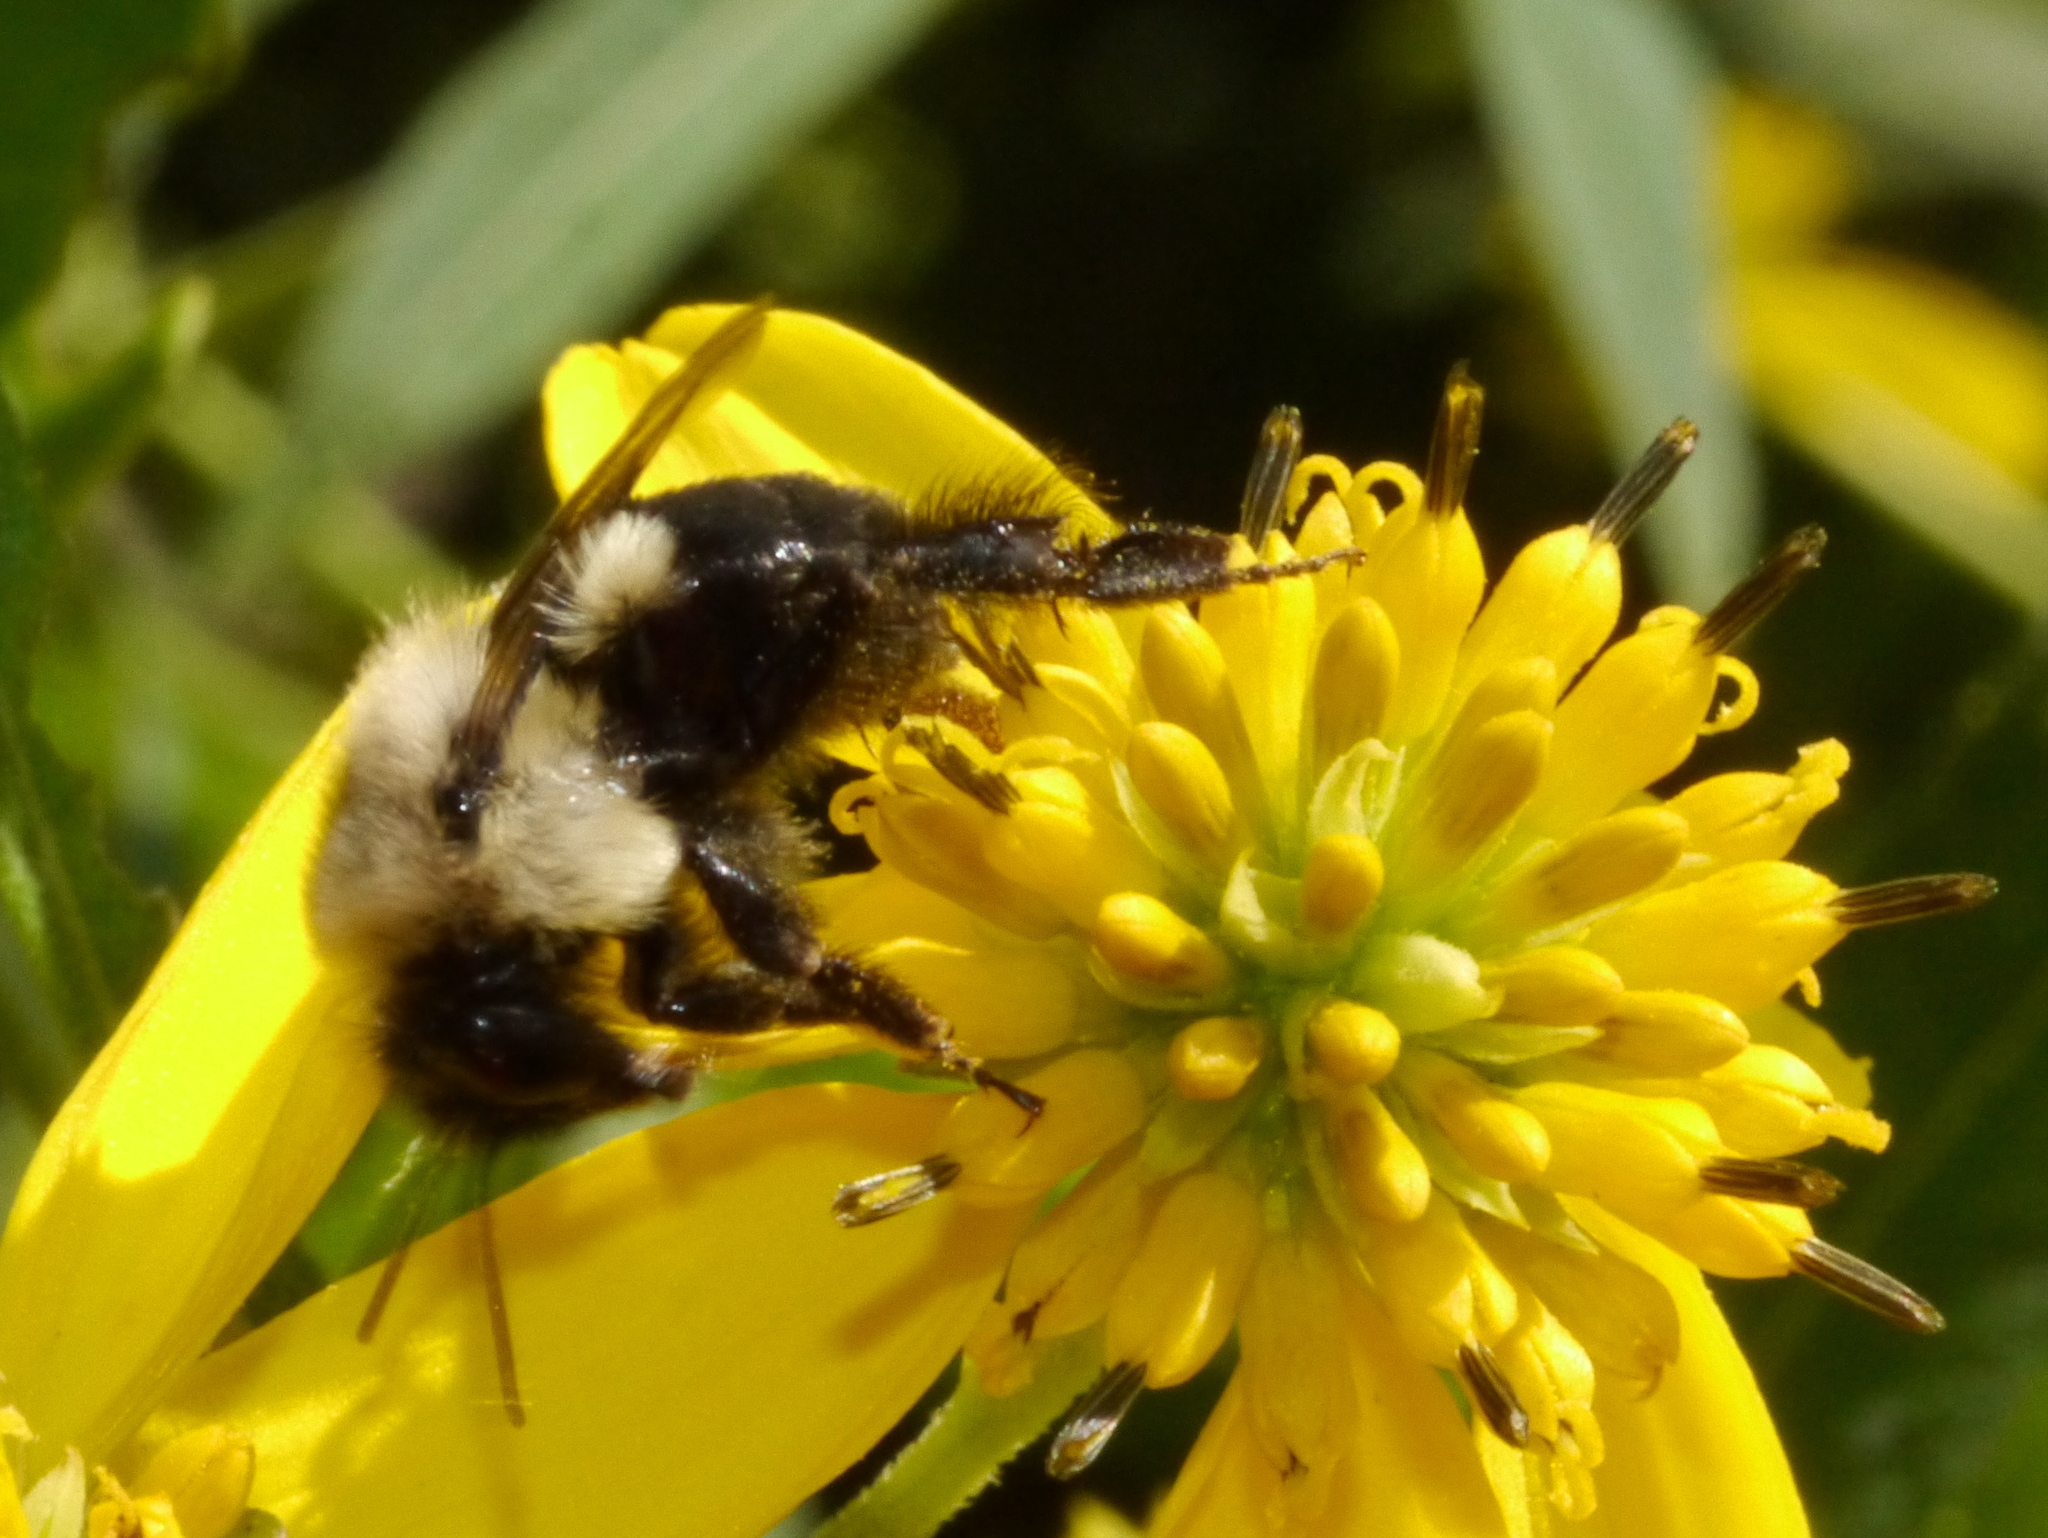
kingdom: Animalia
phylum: Arthropoda
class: Insecta
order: Hymenoptera
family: Apidae
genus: Bombus
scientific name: Bombus impatiens
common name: Common eastern bumble bee
